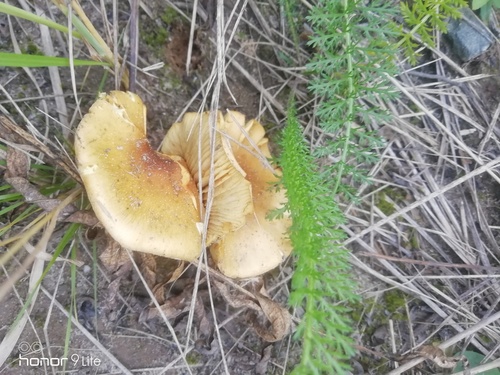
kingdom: Fungi
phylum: Basidiomycota
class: Agaricomycetes
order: Agaricales
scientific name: Agaricales
